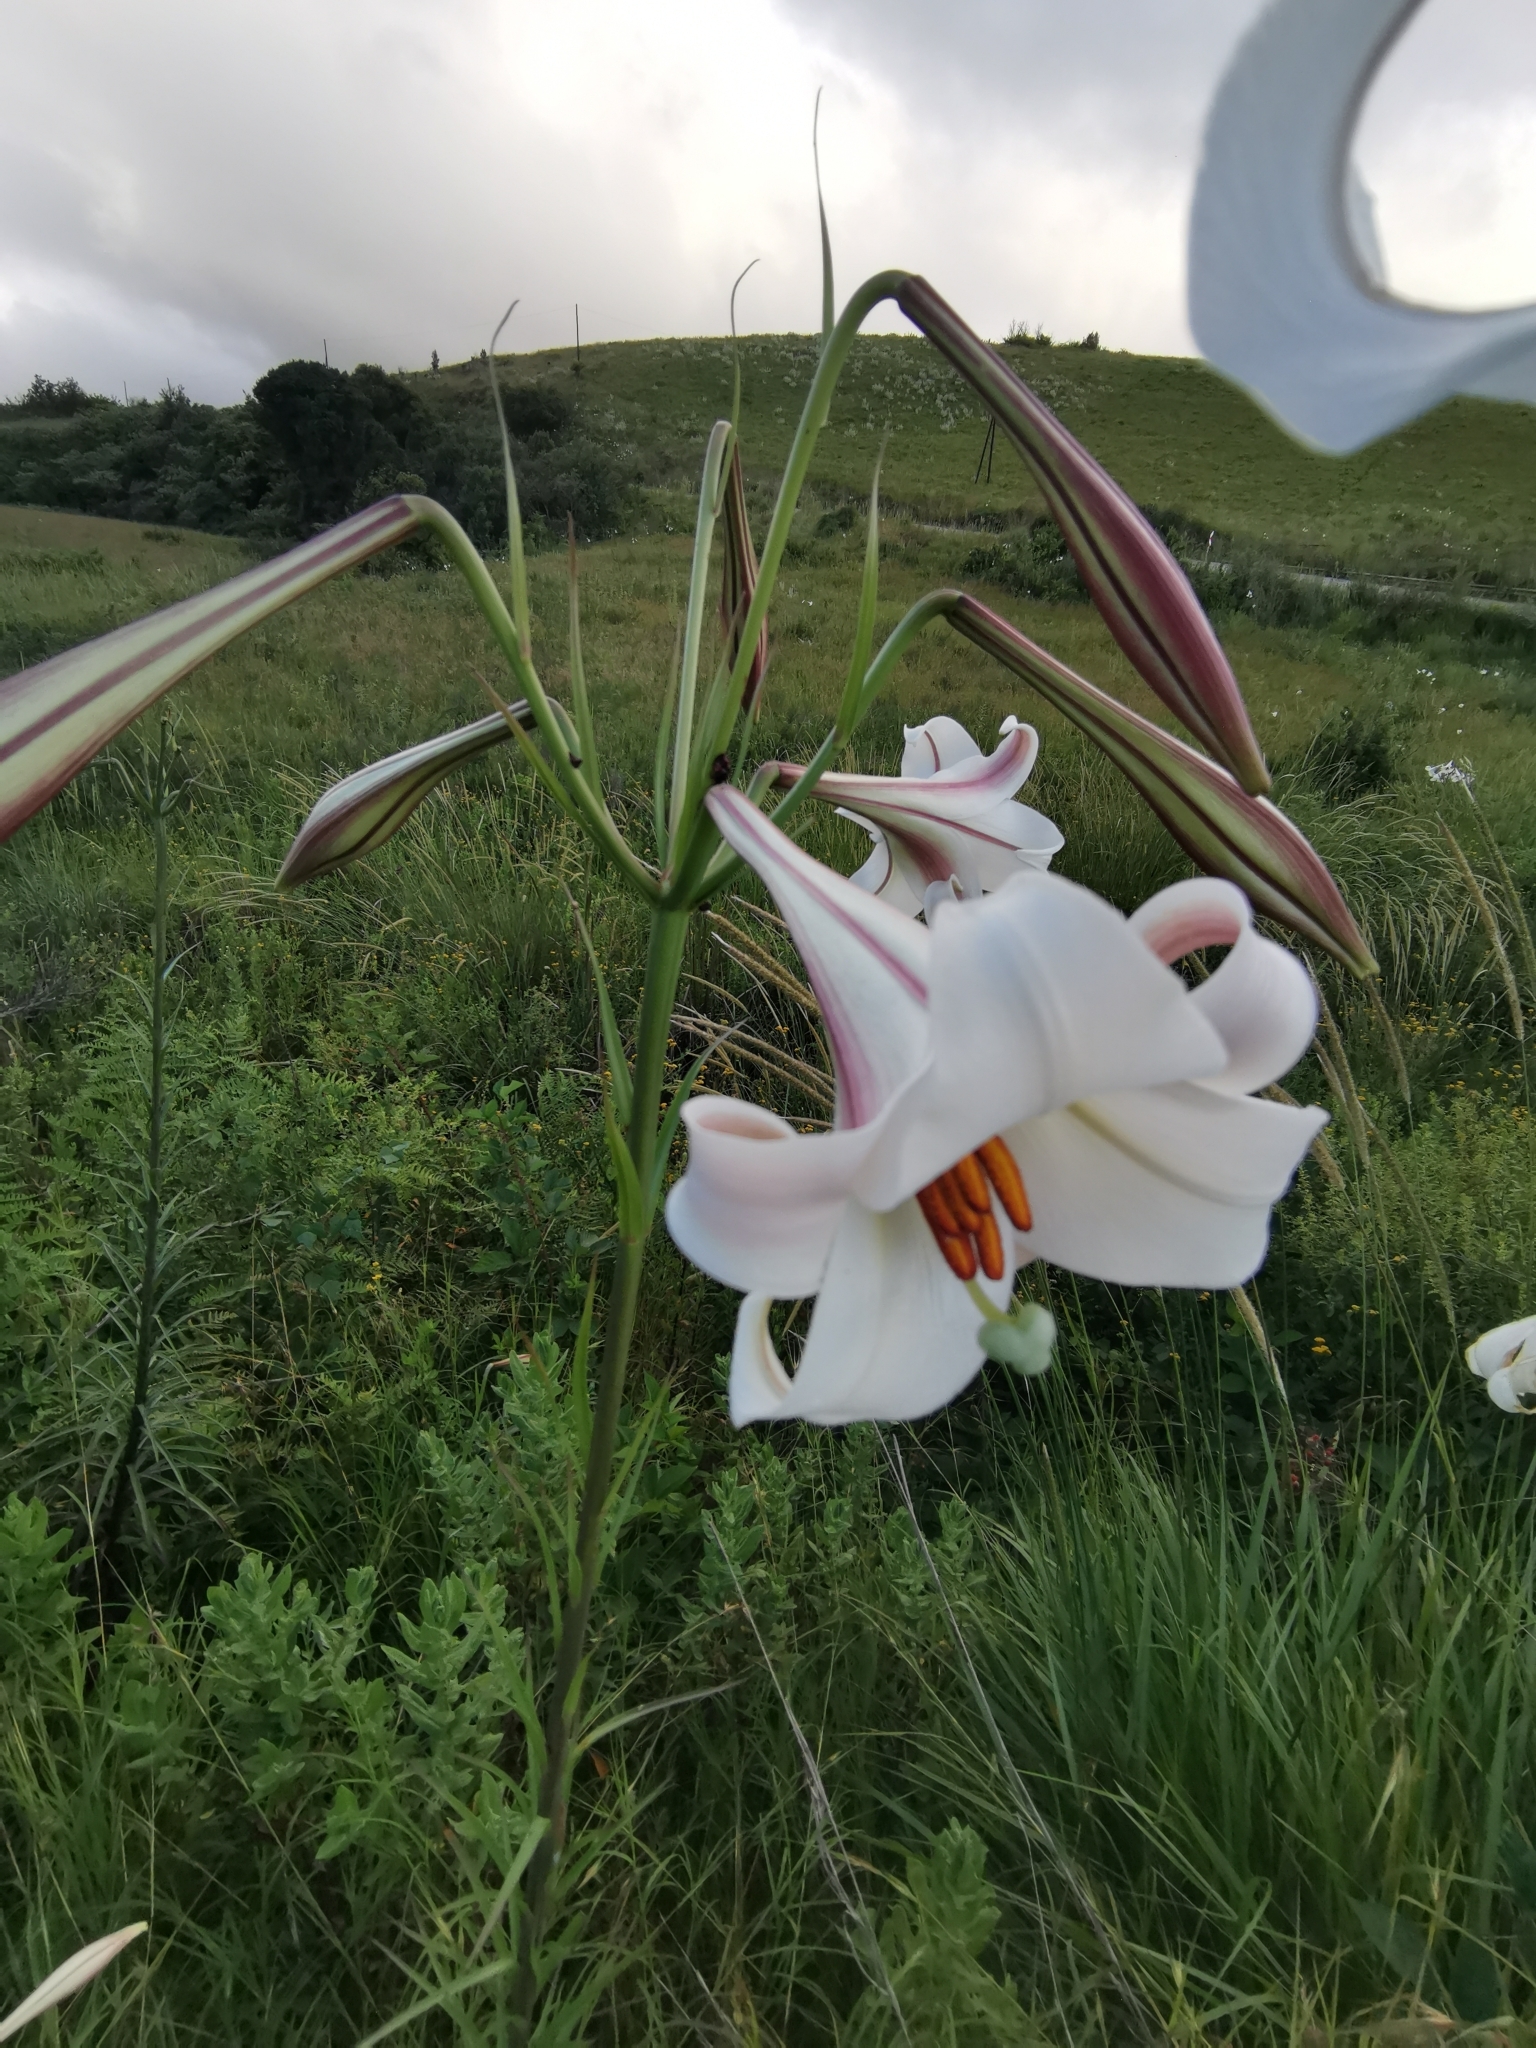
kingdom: Plantae
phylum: Tracheophyta
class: Liliopsida
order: Liliales
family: Liliaceae
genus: Lilium
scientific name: Lilium formosanum
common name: Formosa lily
